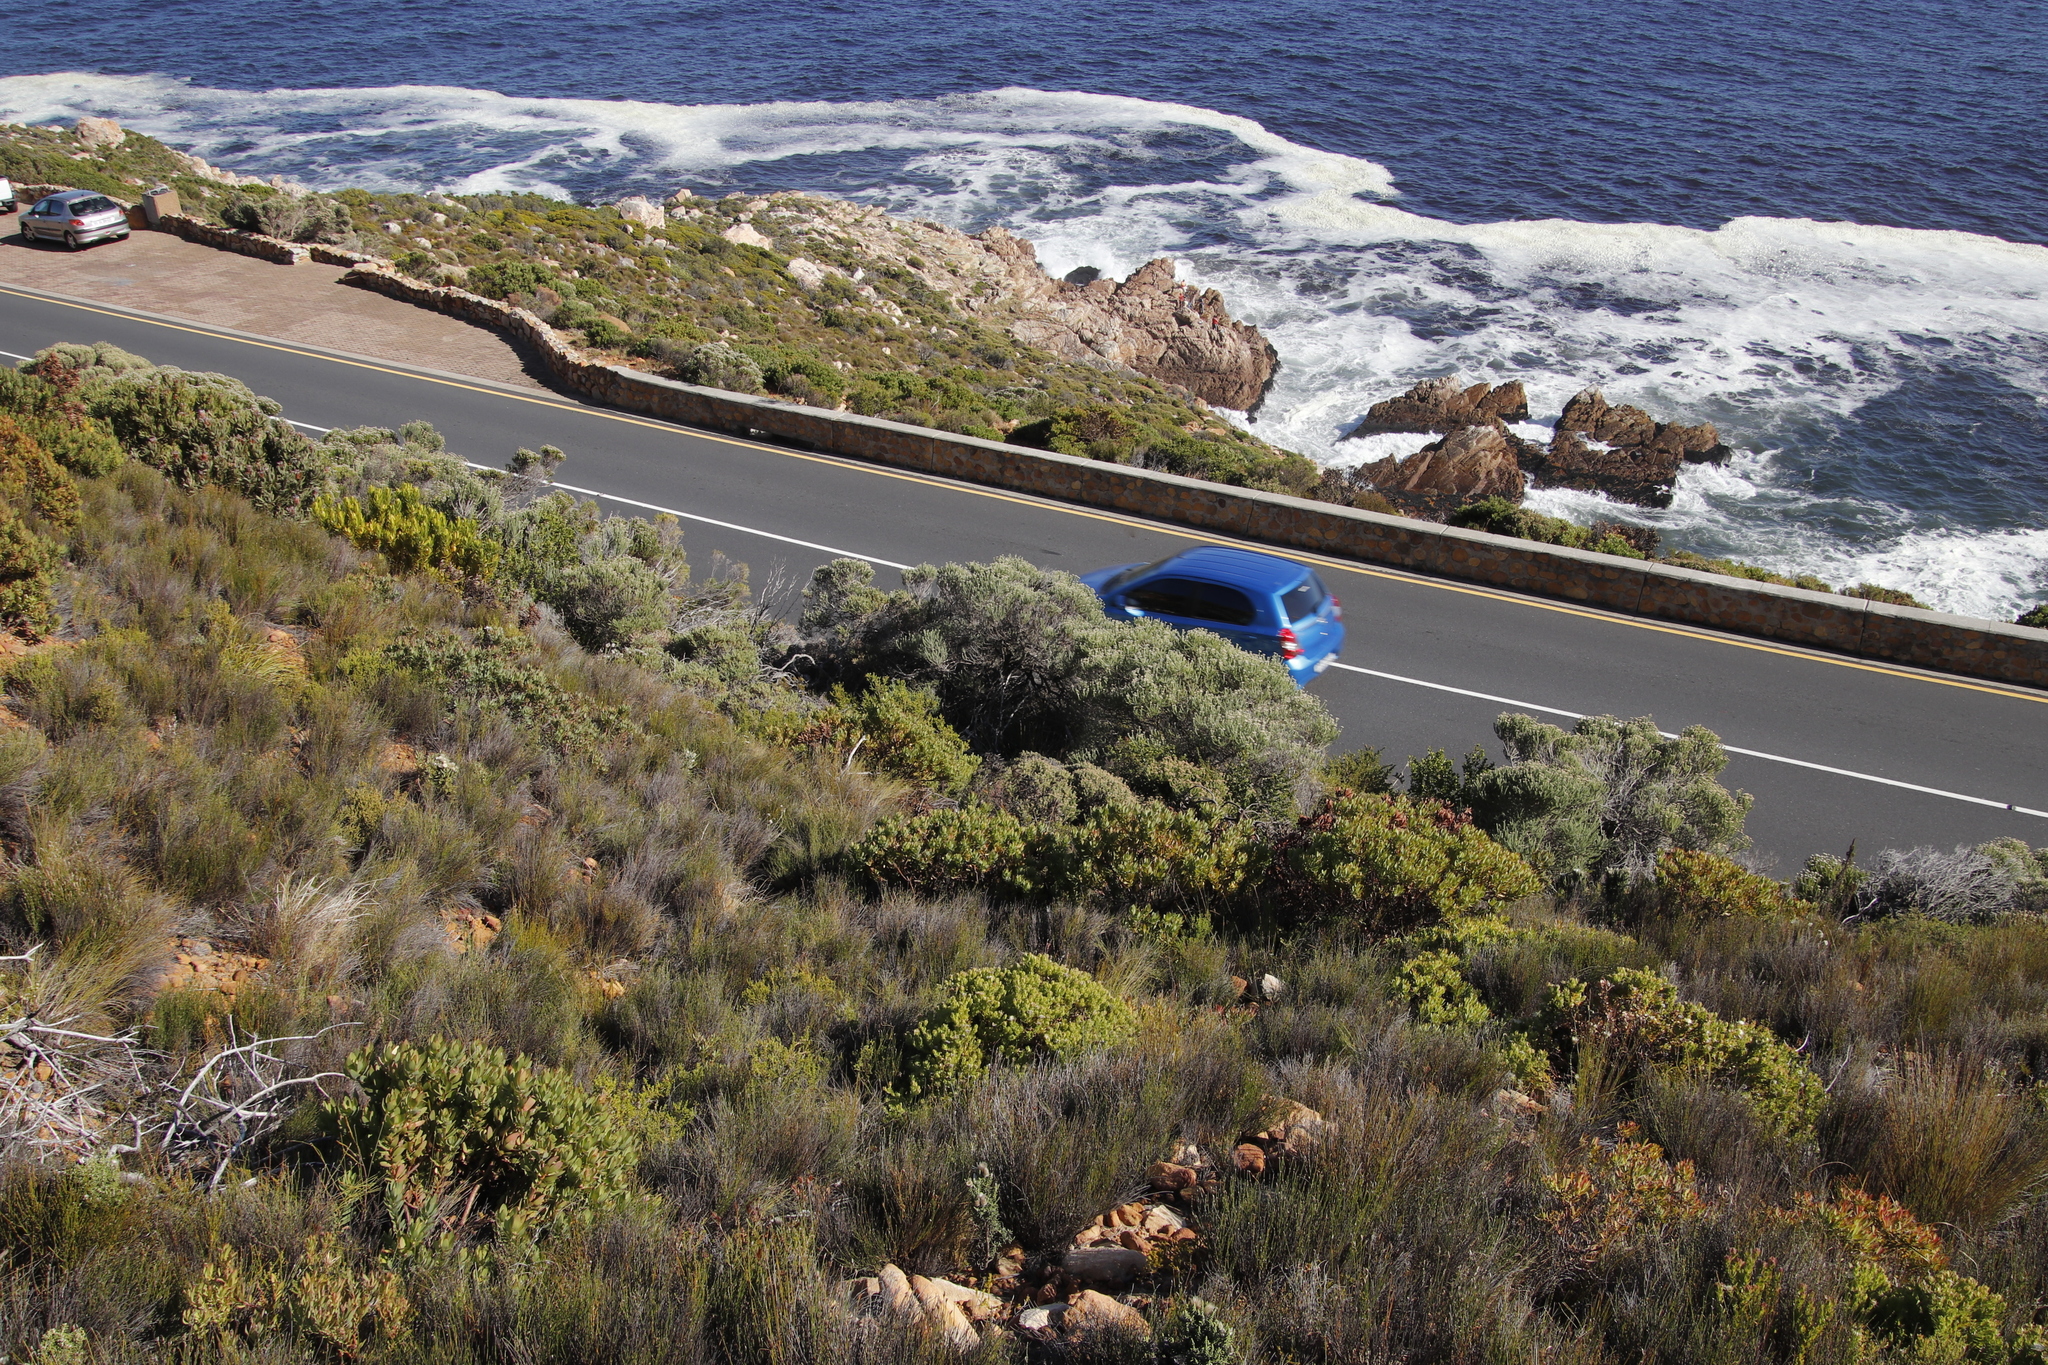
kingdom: Plantae
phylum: Tracheophyta
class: Magnoliopsida
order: Asterales
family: Asteraceae
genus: Metalasia
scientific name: Metalasia densa
